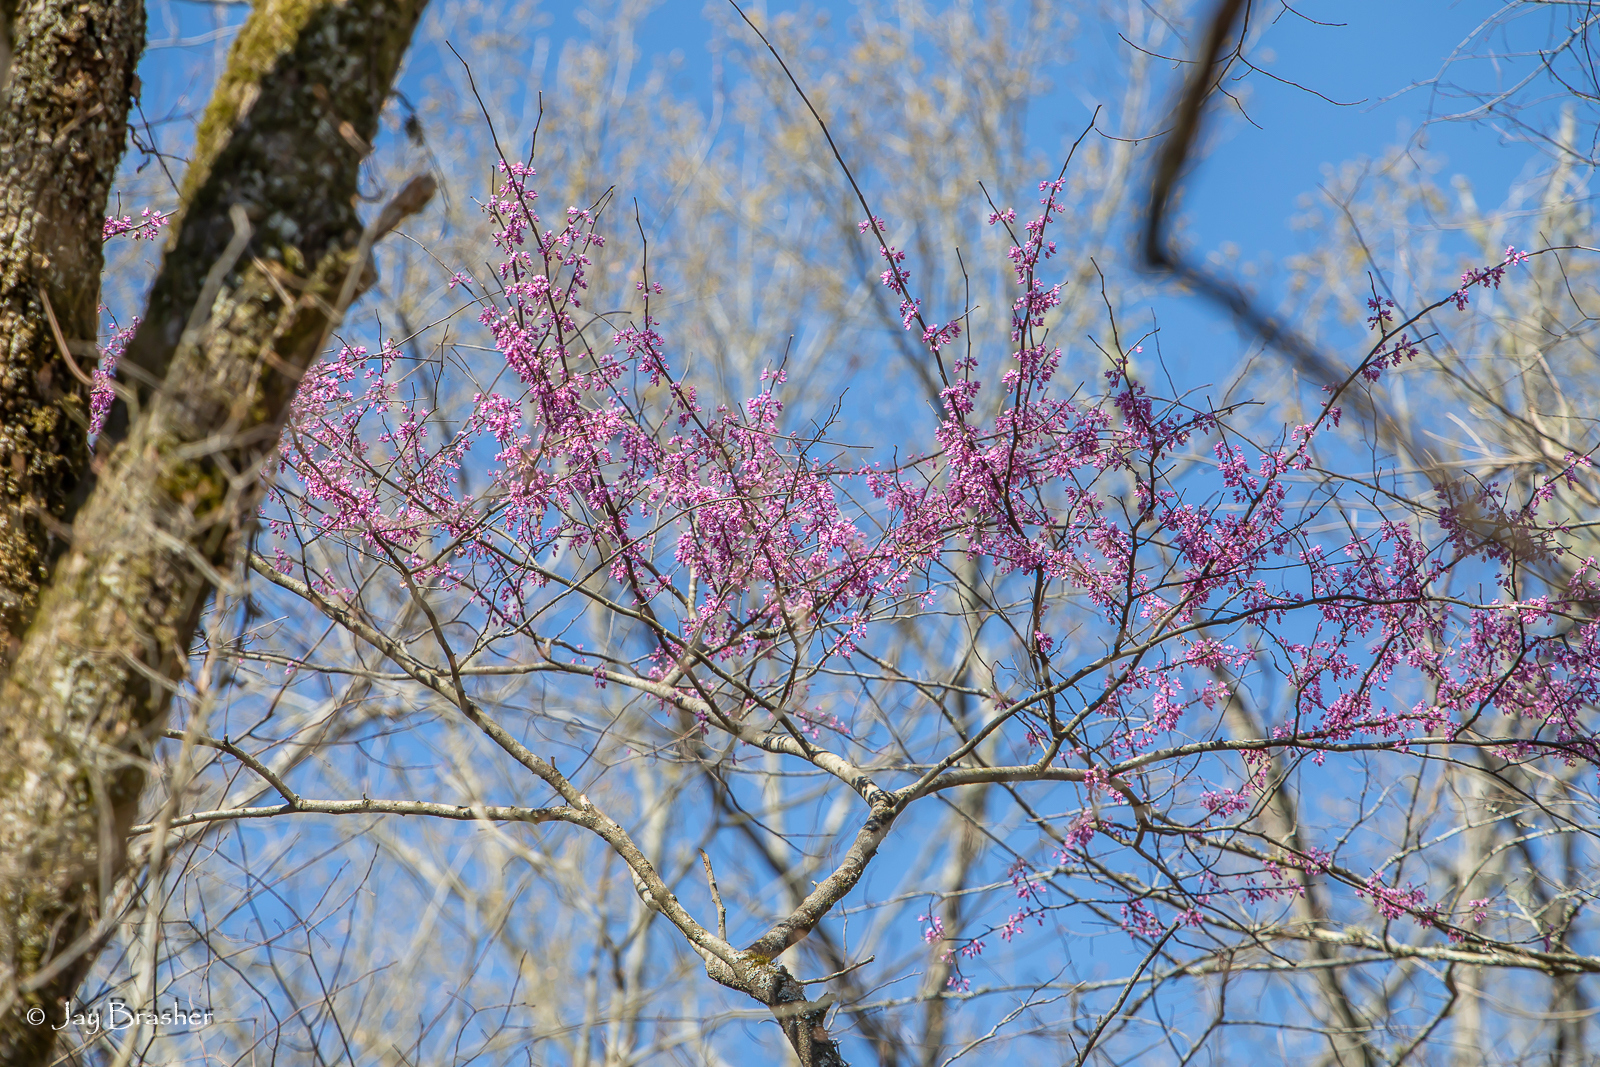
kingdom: Plantae
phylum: Tracheophyta
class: Magnoliopsida
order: Fabales
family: Fabaceae
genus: Cercis
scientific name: Cercis canadensis
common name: Eastern redbud
